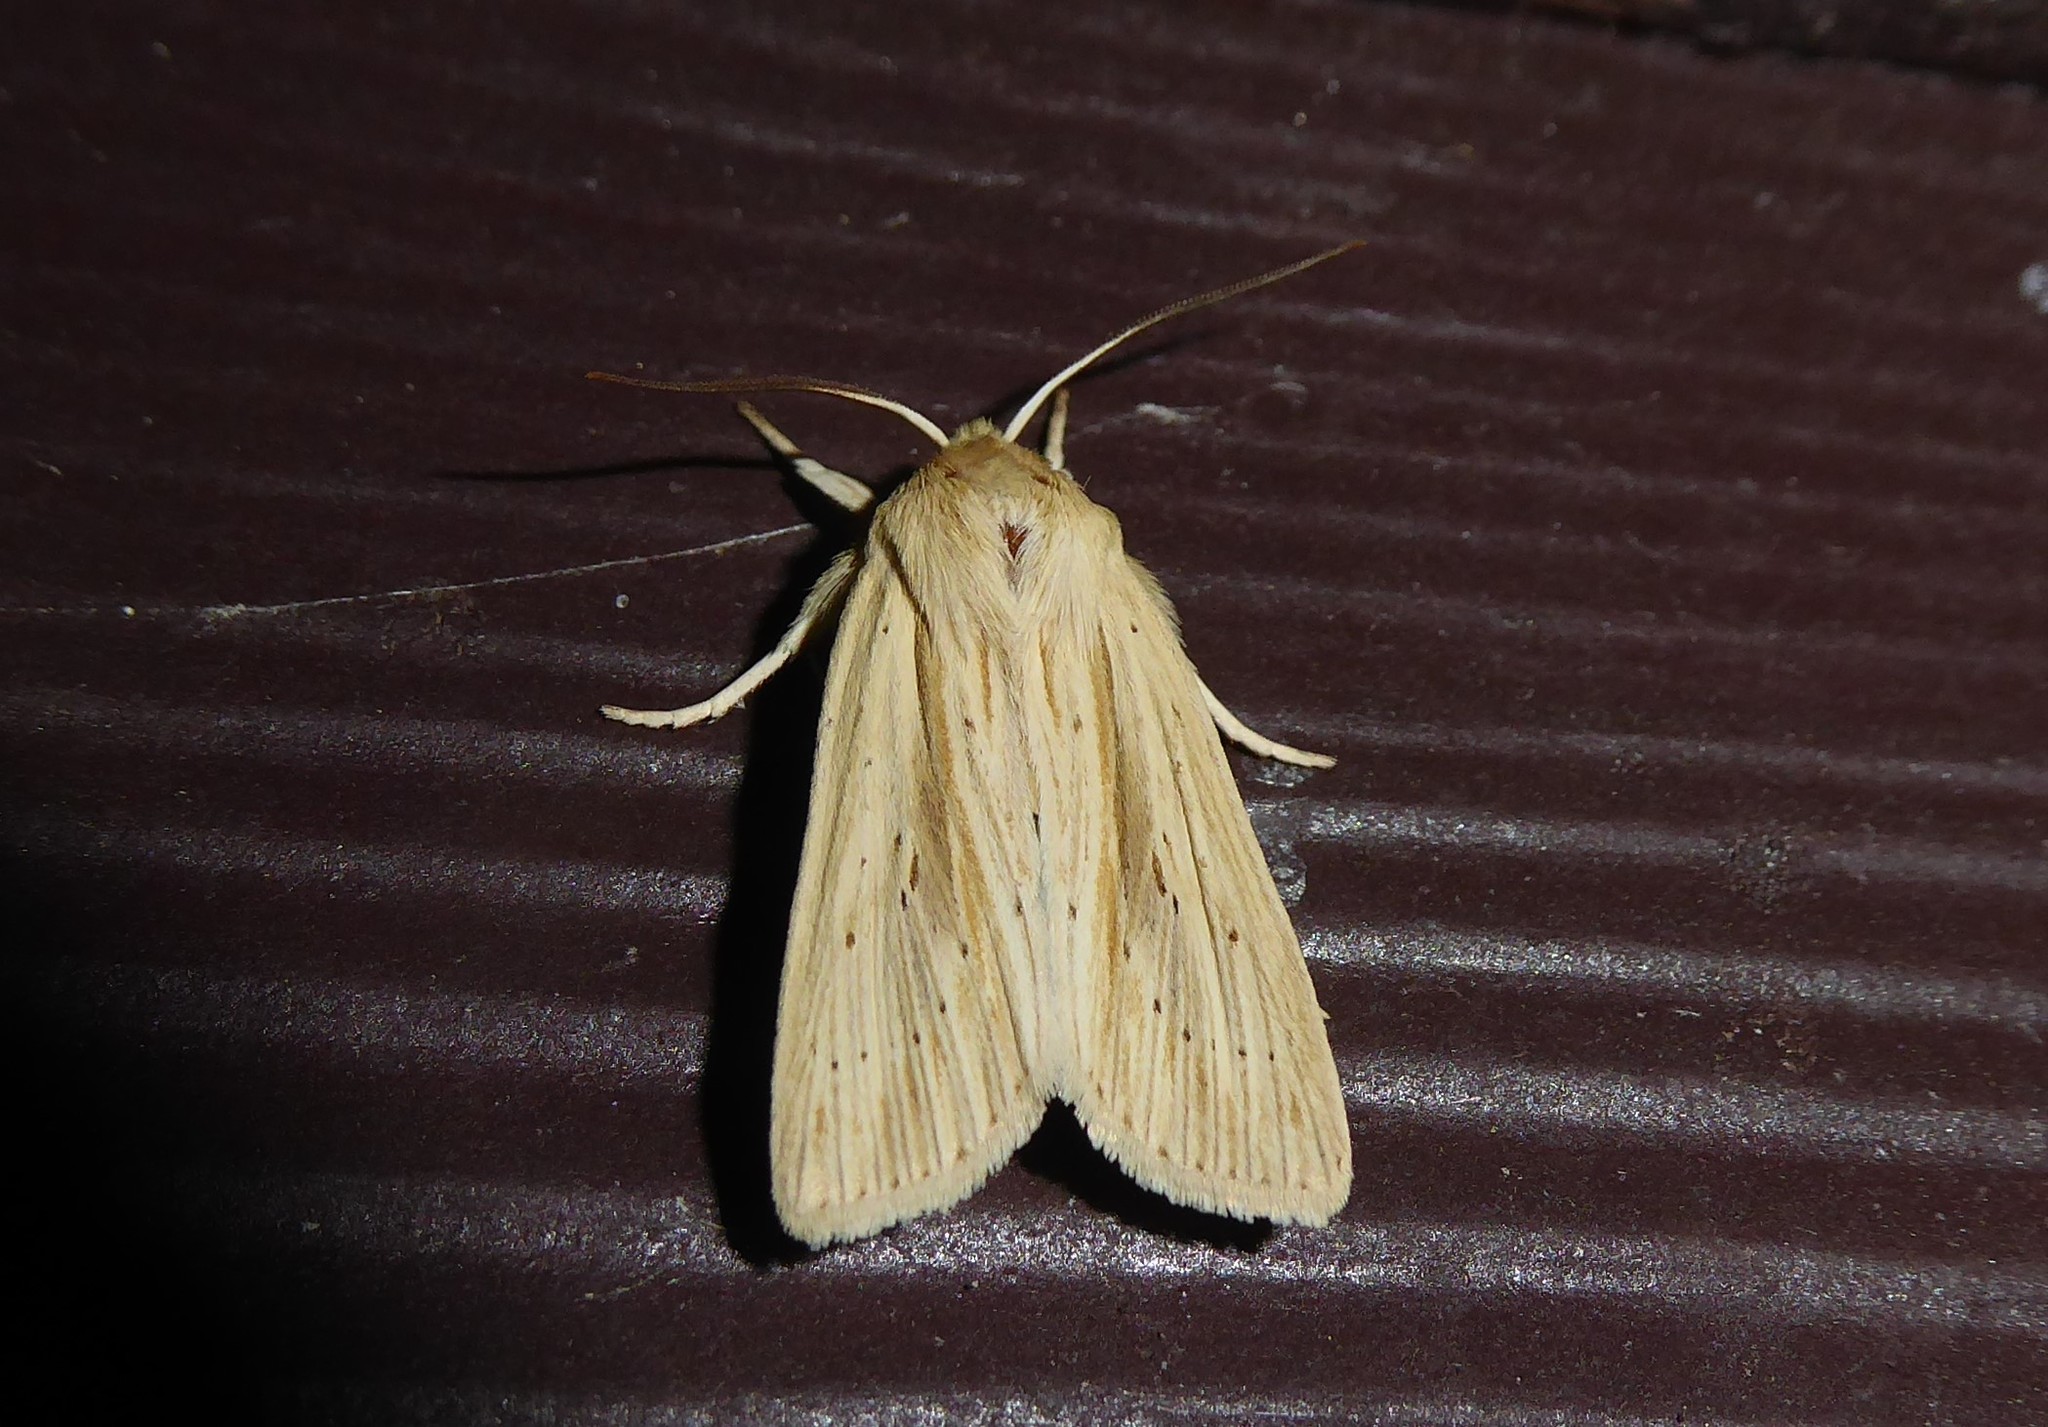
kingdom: Animalia
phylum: Arthropoda
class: Insecta
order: Lepidoptera
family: Noctuidae
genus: Ichneutica
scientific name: Ichneutica semivittata
